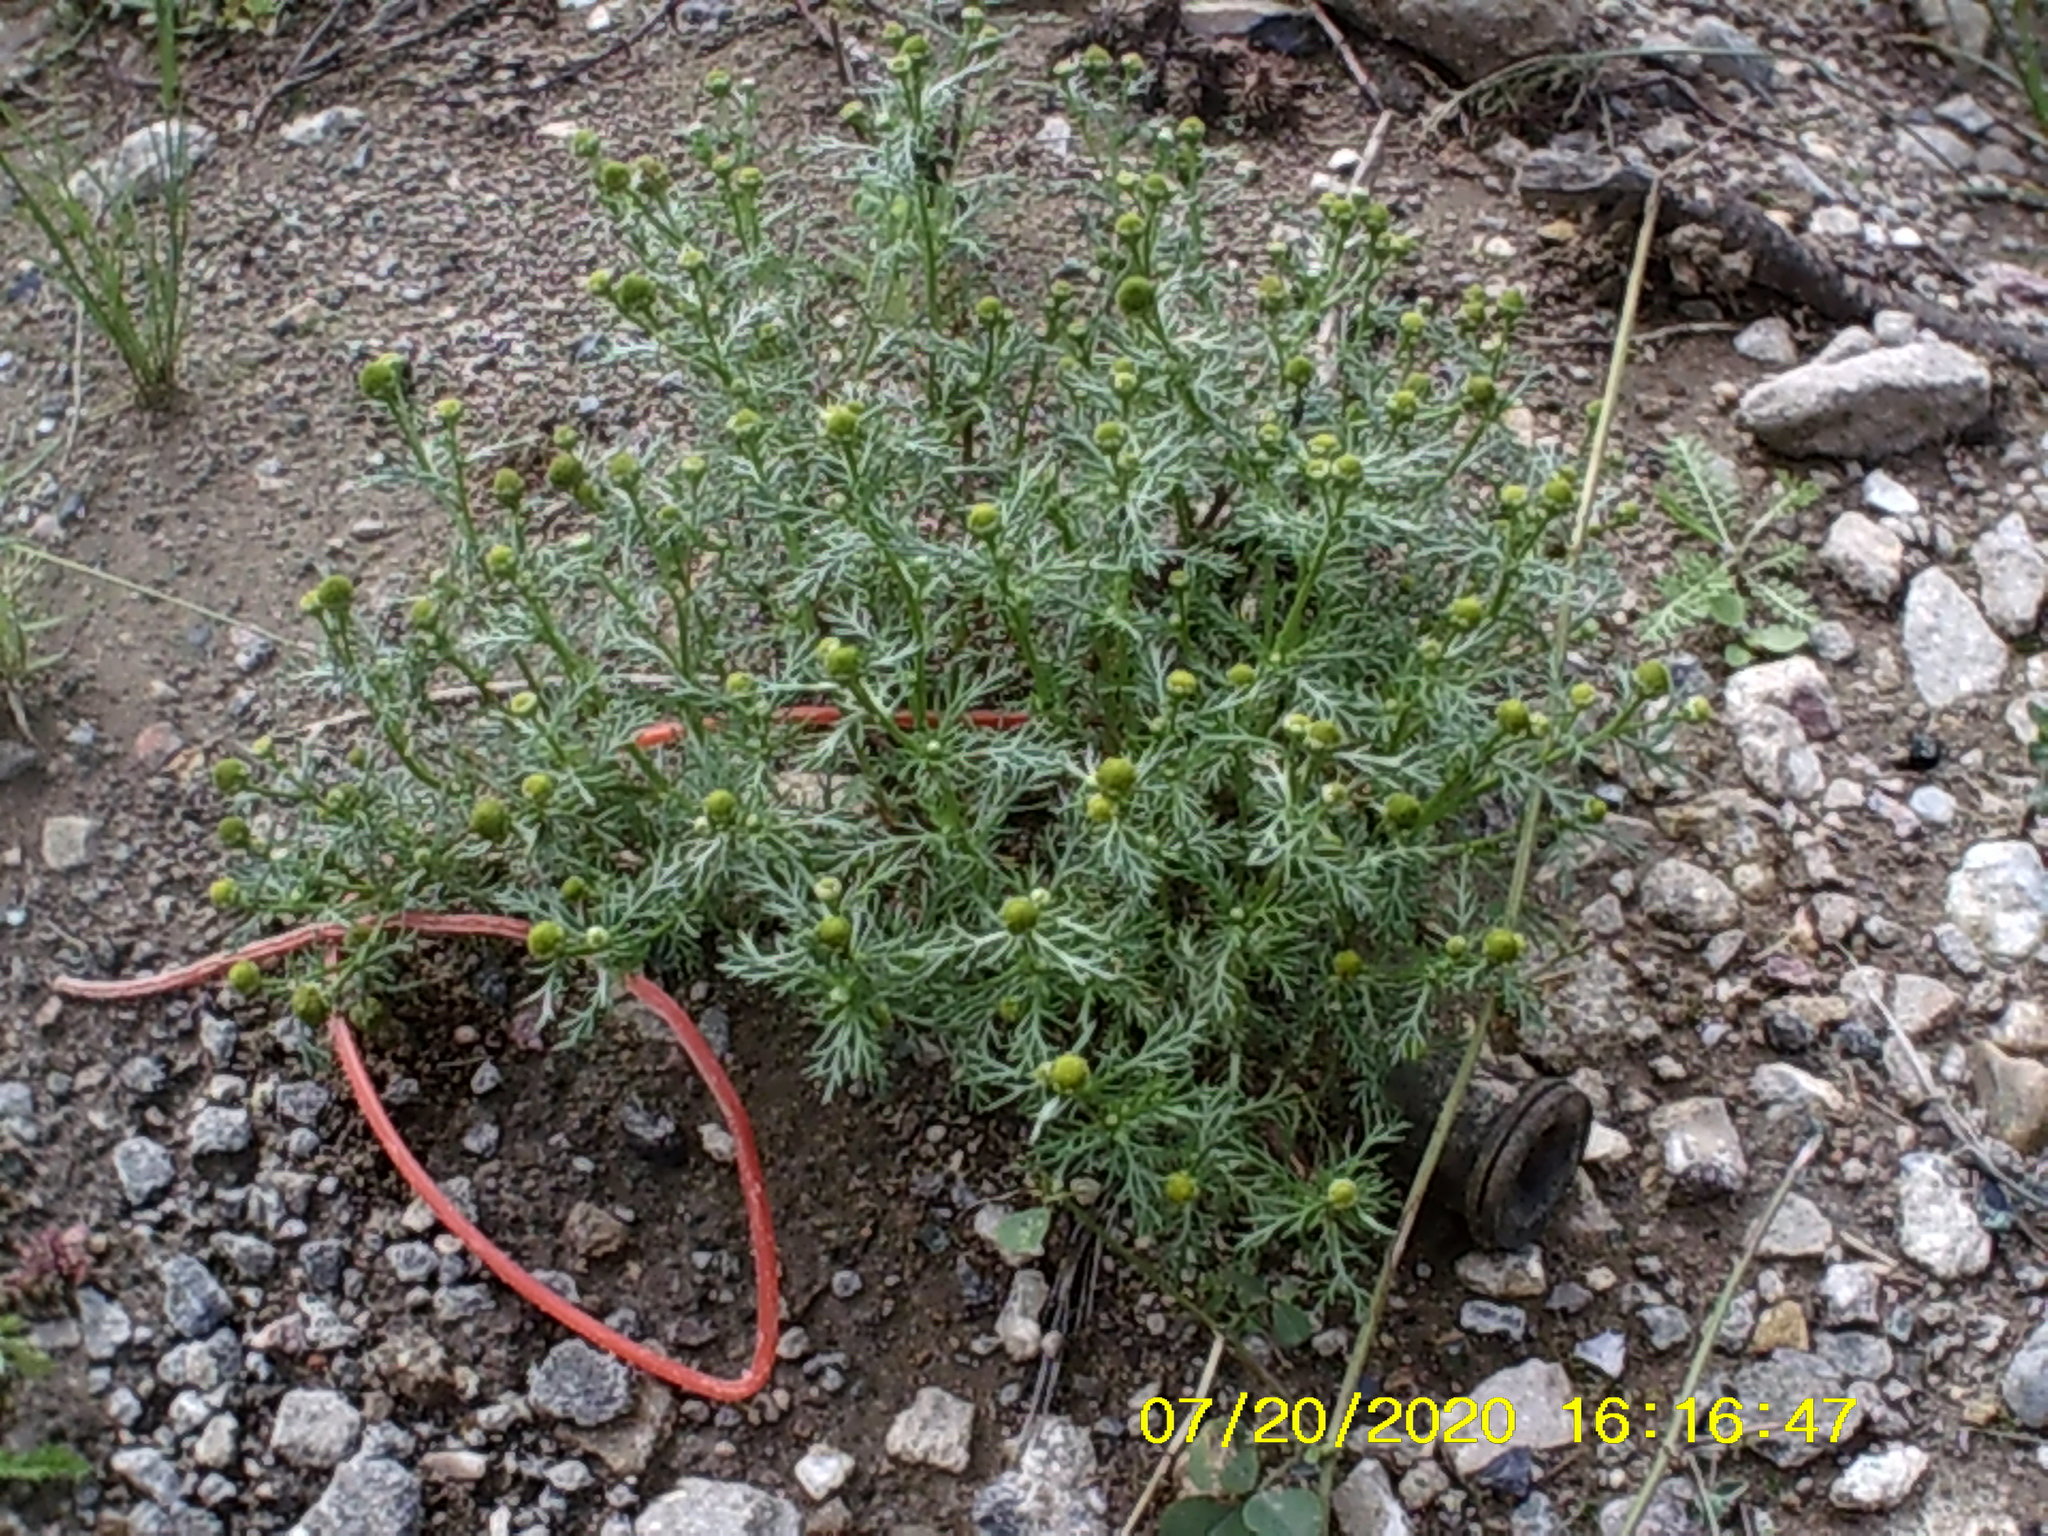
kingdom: Plantae
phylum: Tracheophyta
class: Magnoliopsida
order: Asterales
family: Asteraceae
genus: Matricaria
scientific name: Matricaria discoidea
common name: Disc mayweed
